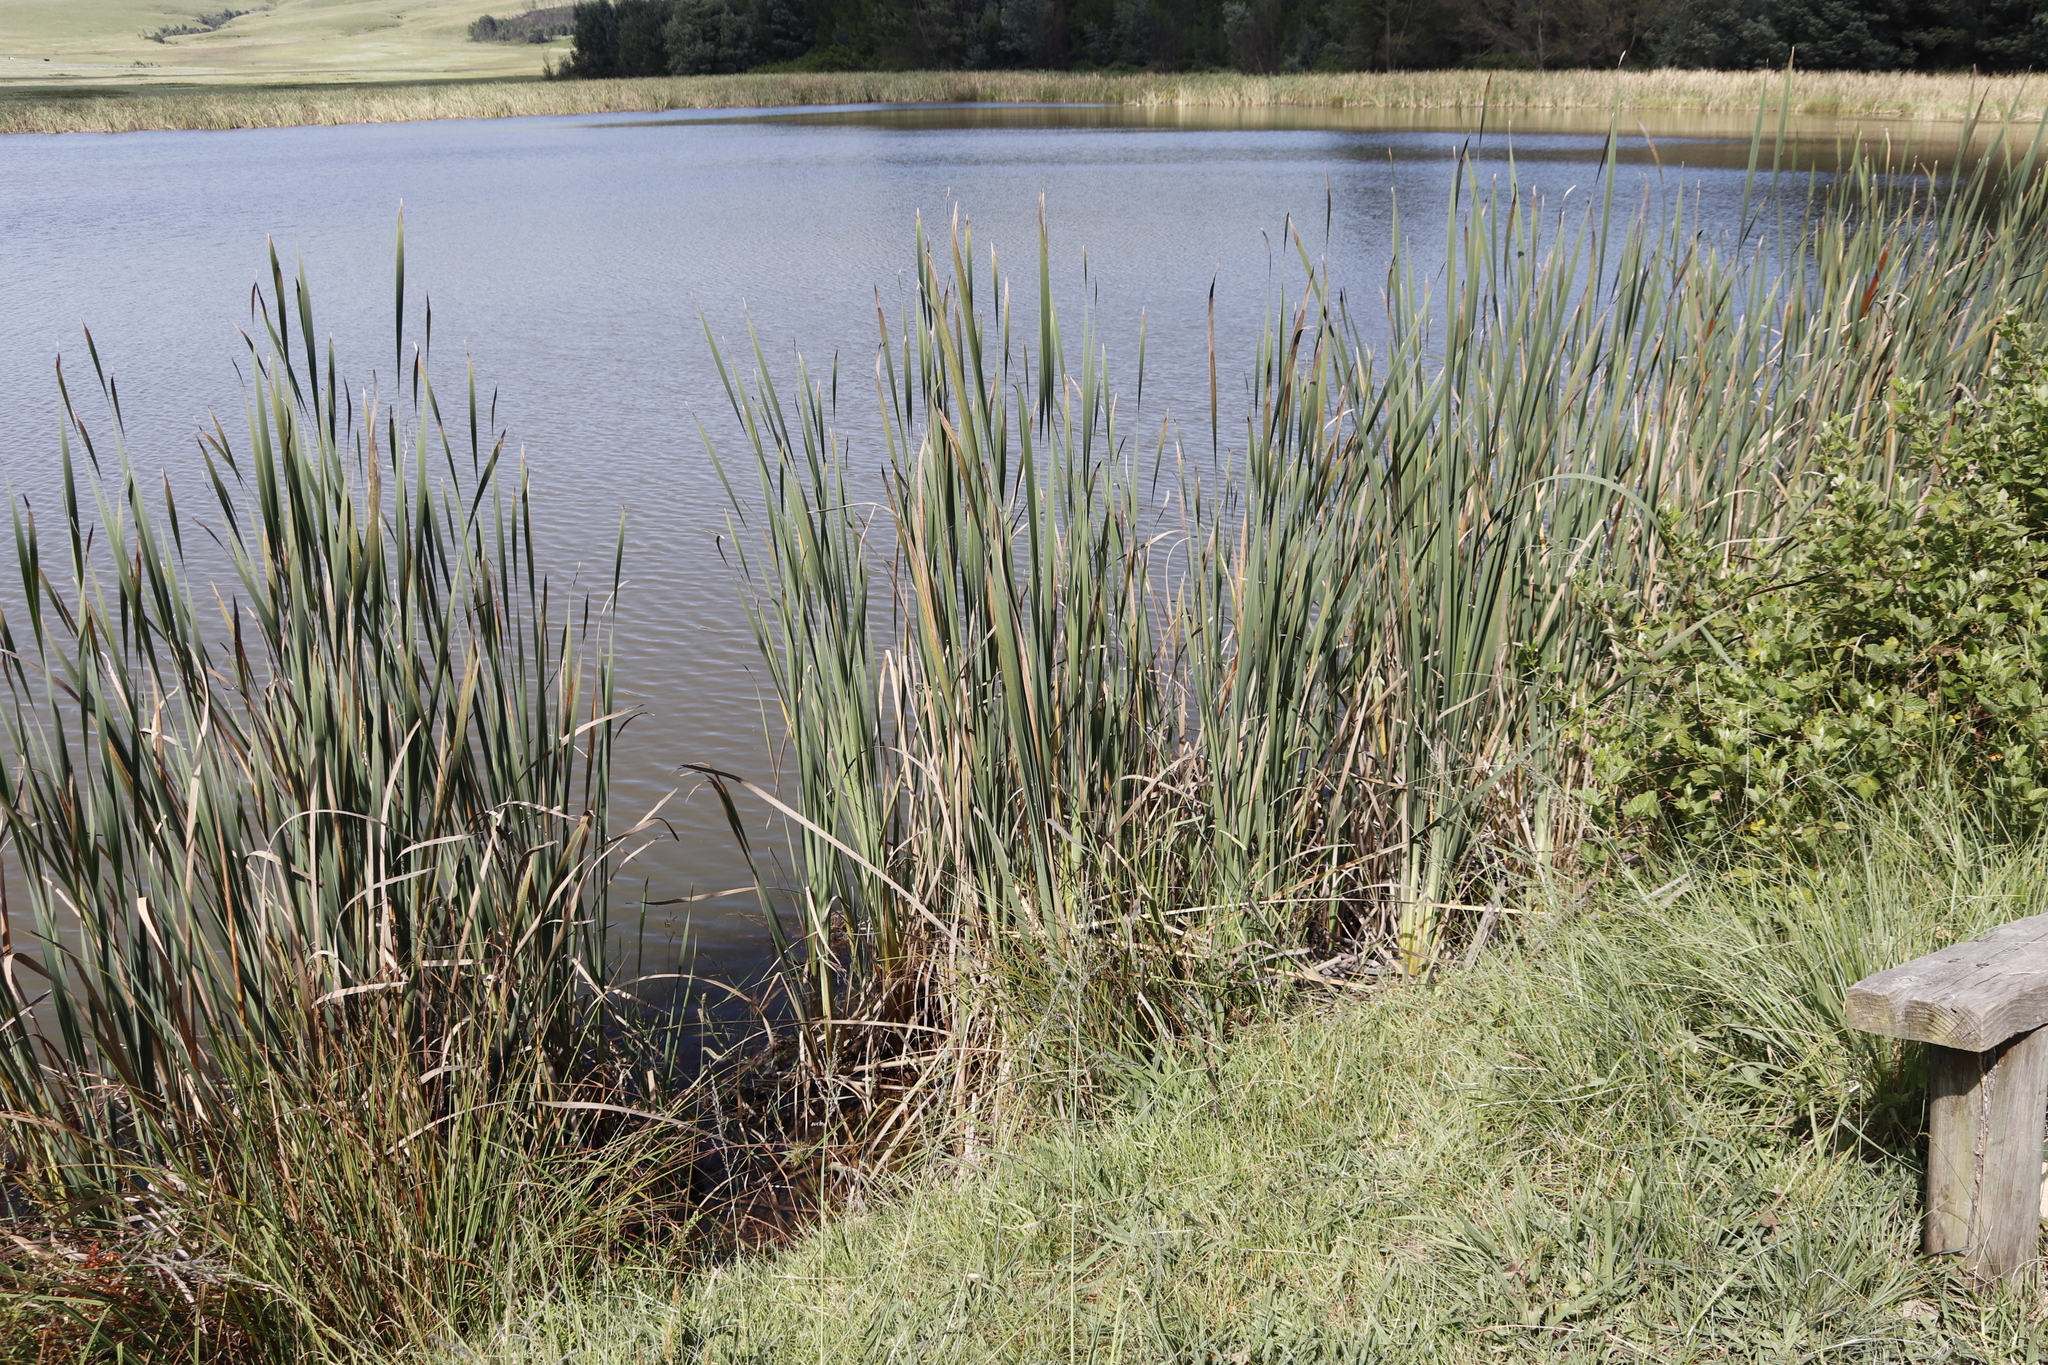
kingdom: Plantae
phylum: Tracheophyta
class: Liliopsida
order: Poales
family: Typhaceae
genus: Typha
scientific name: Typha capensis
